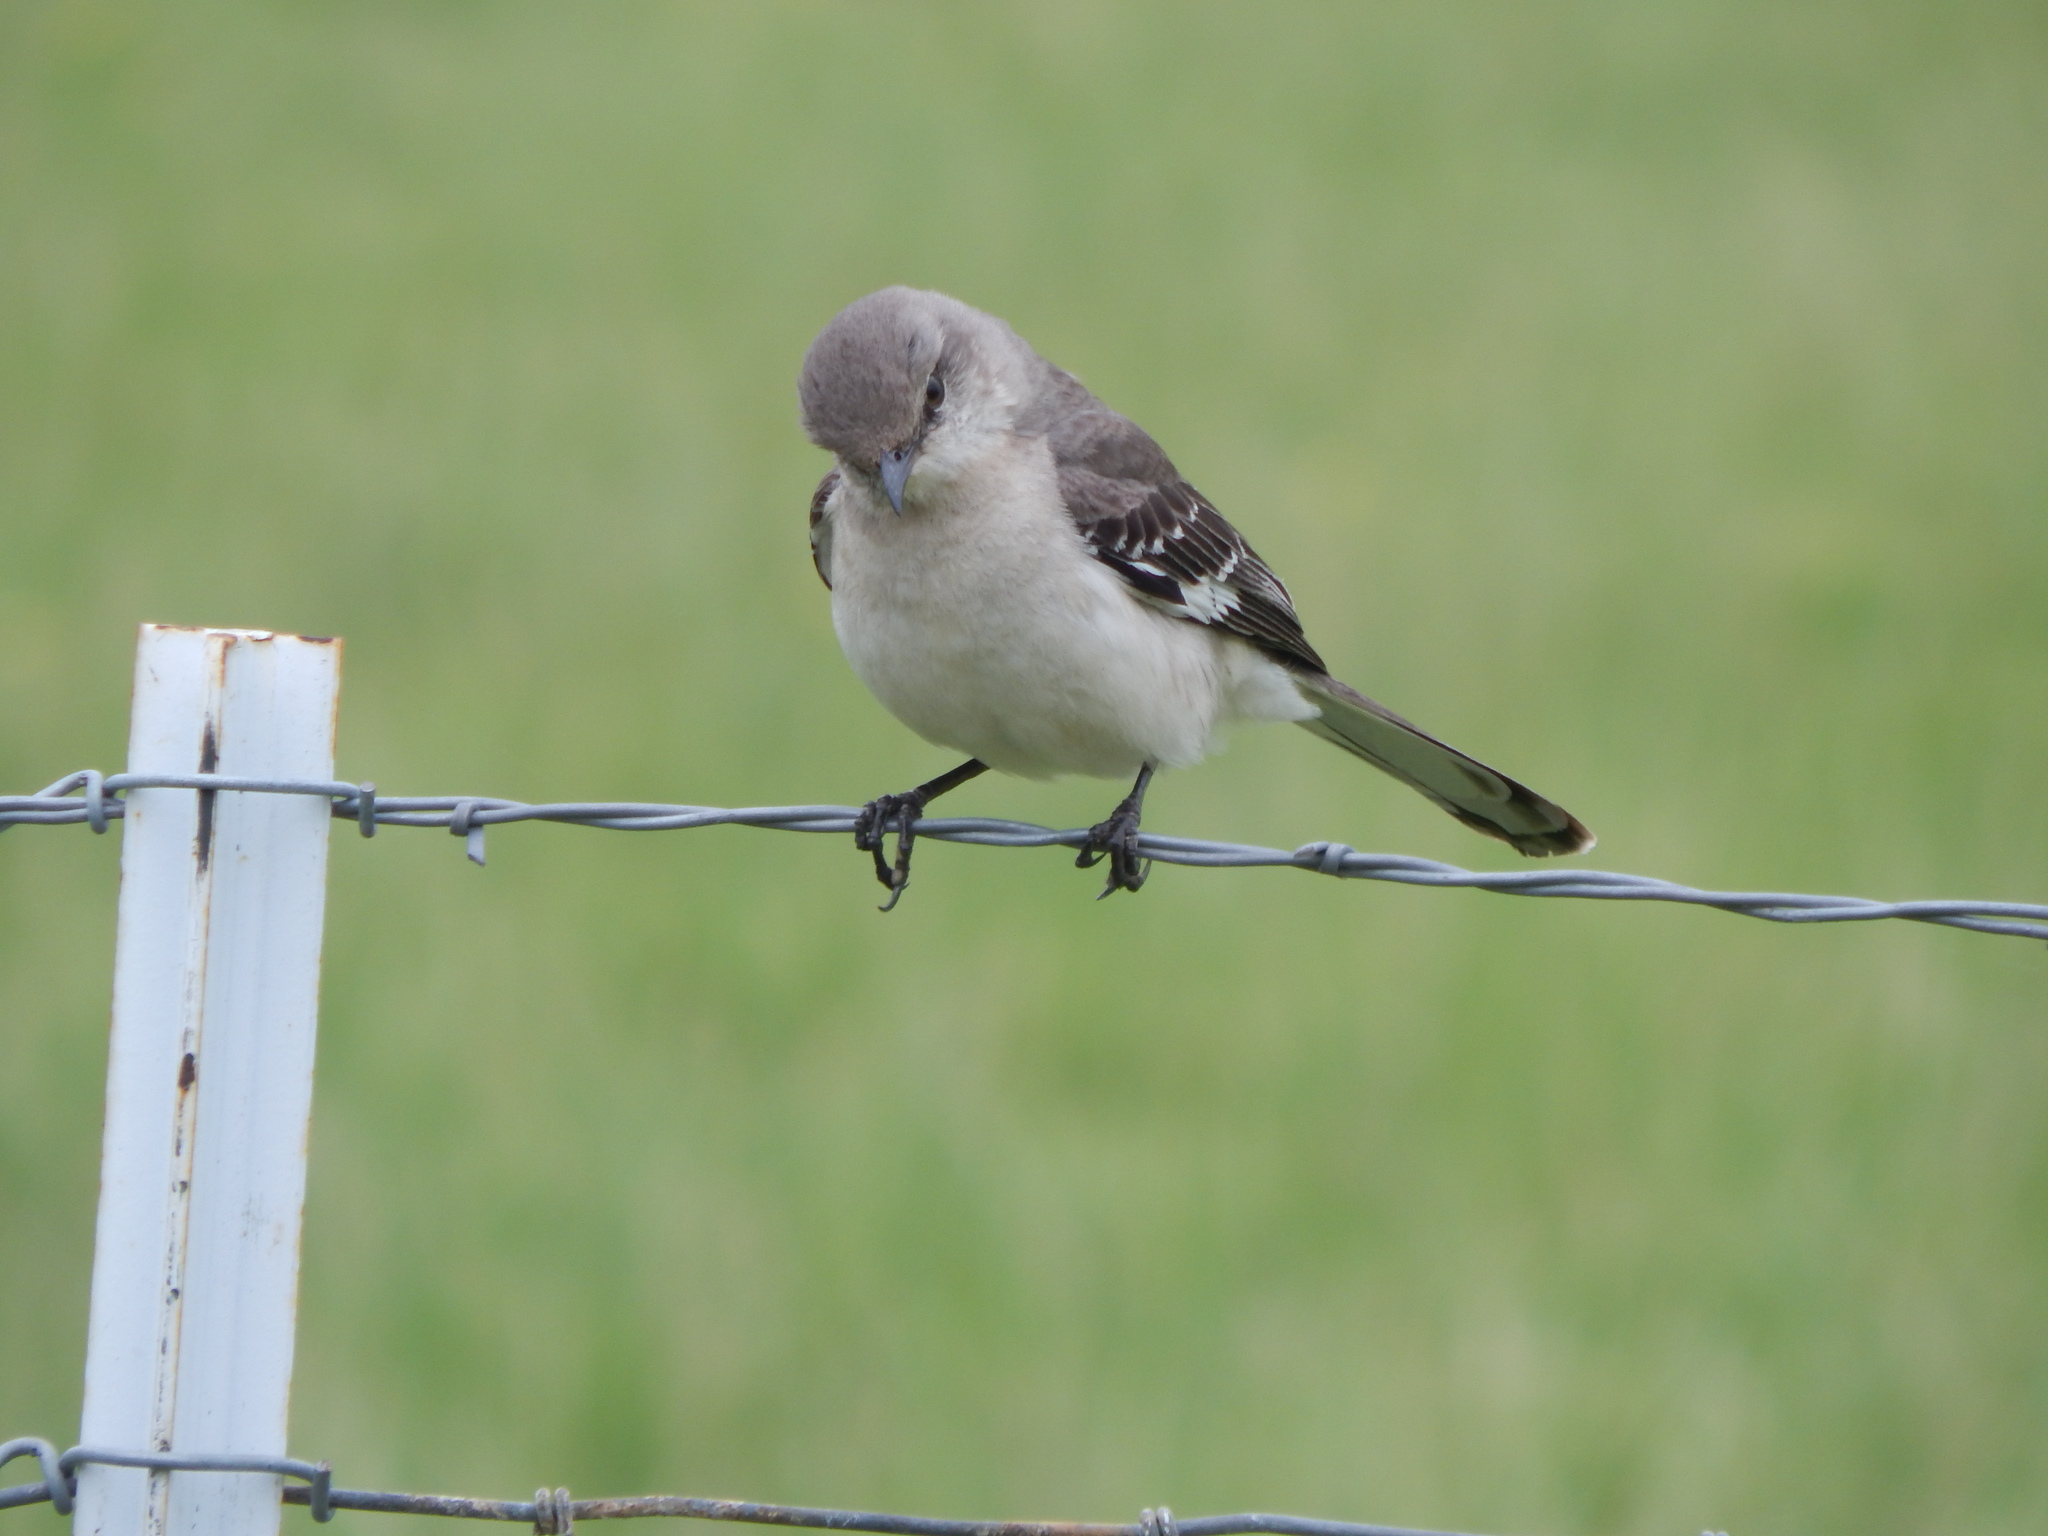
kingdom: Animalia
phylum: Chordata
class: Aves
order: Passeriformes
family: Mimidae
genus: Mimus
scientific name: Mimus polyglottos
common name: Northern mockingbird
